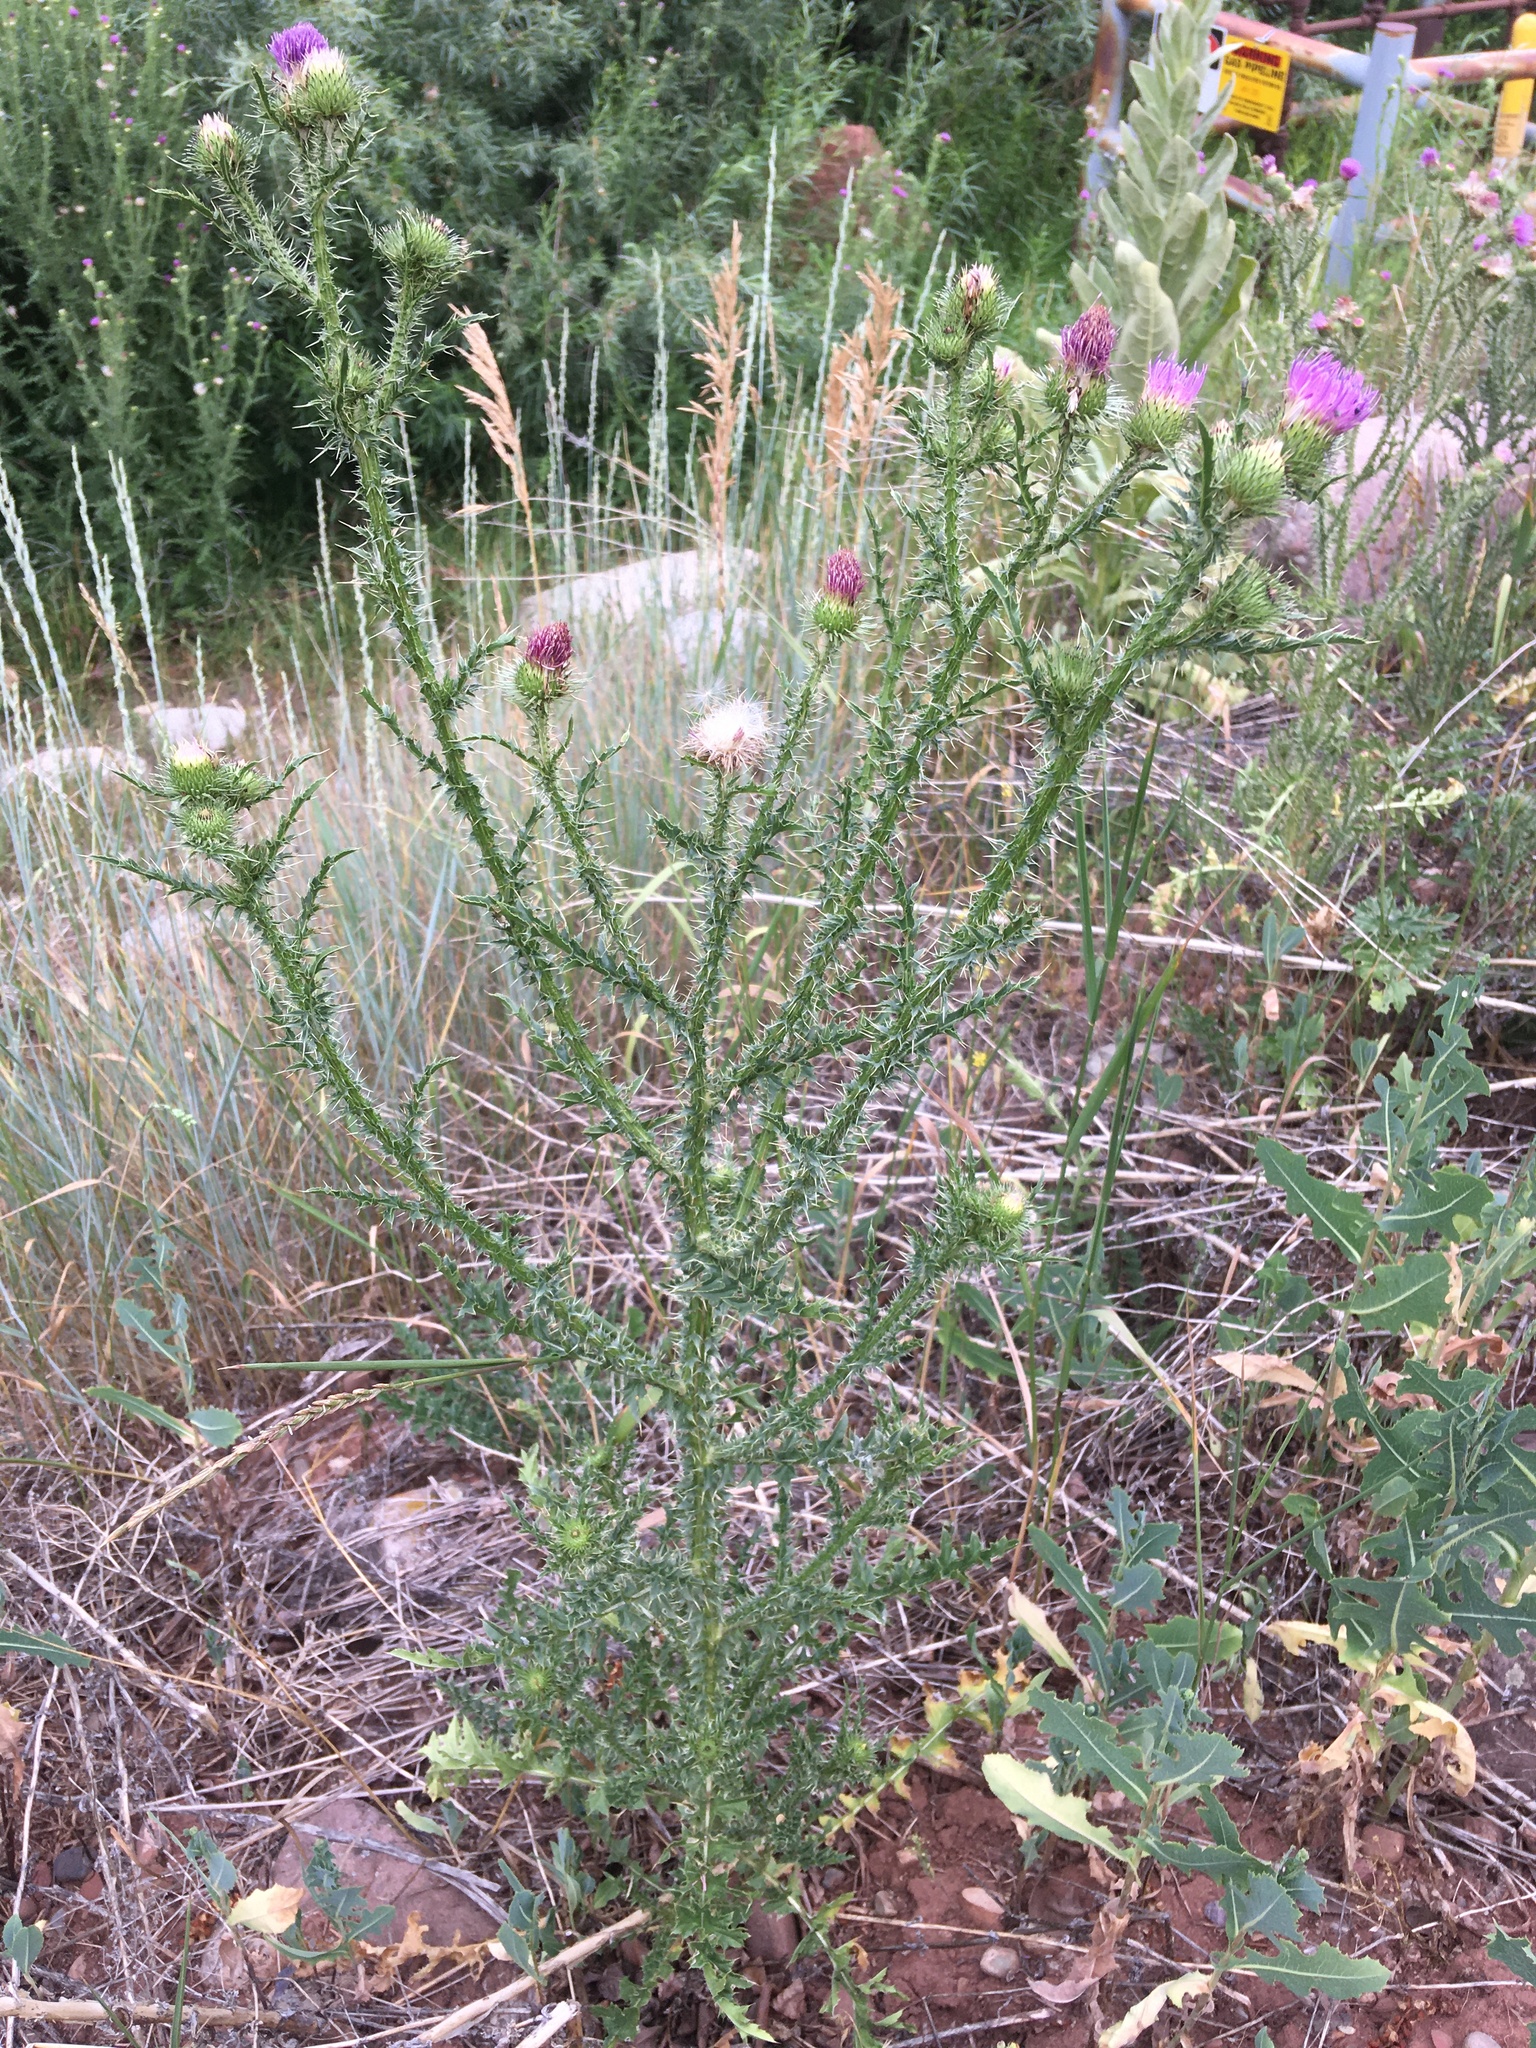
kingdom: Plantae
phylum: Tracheophyta
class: Magnoliopsida
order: Asterales
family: Asteraceae
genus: Carduus
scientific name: Carduus acanthoides
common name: Plumeless thistle
